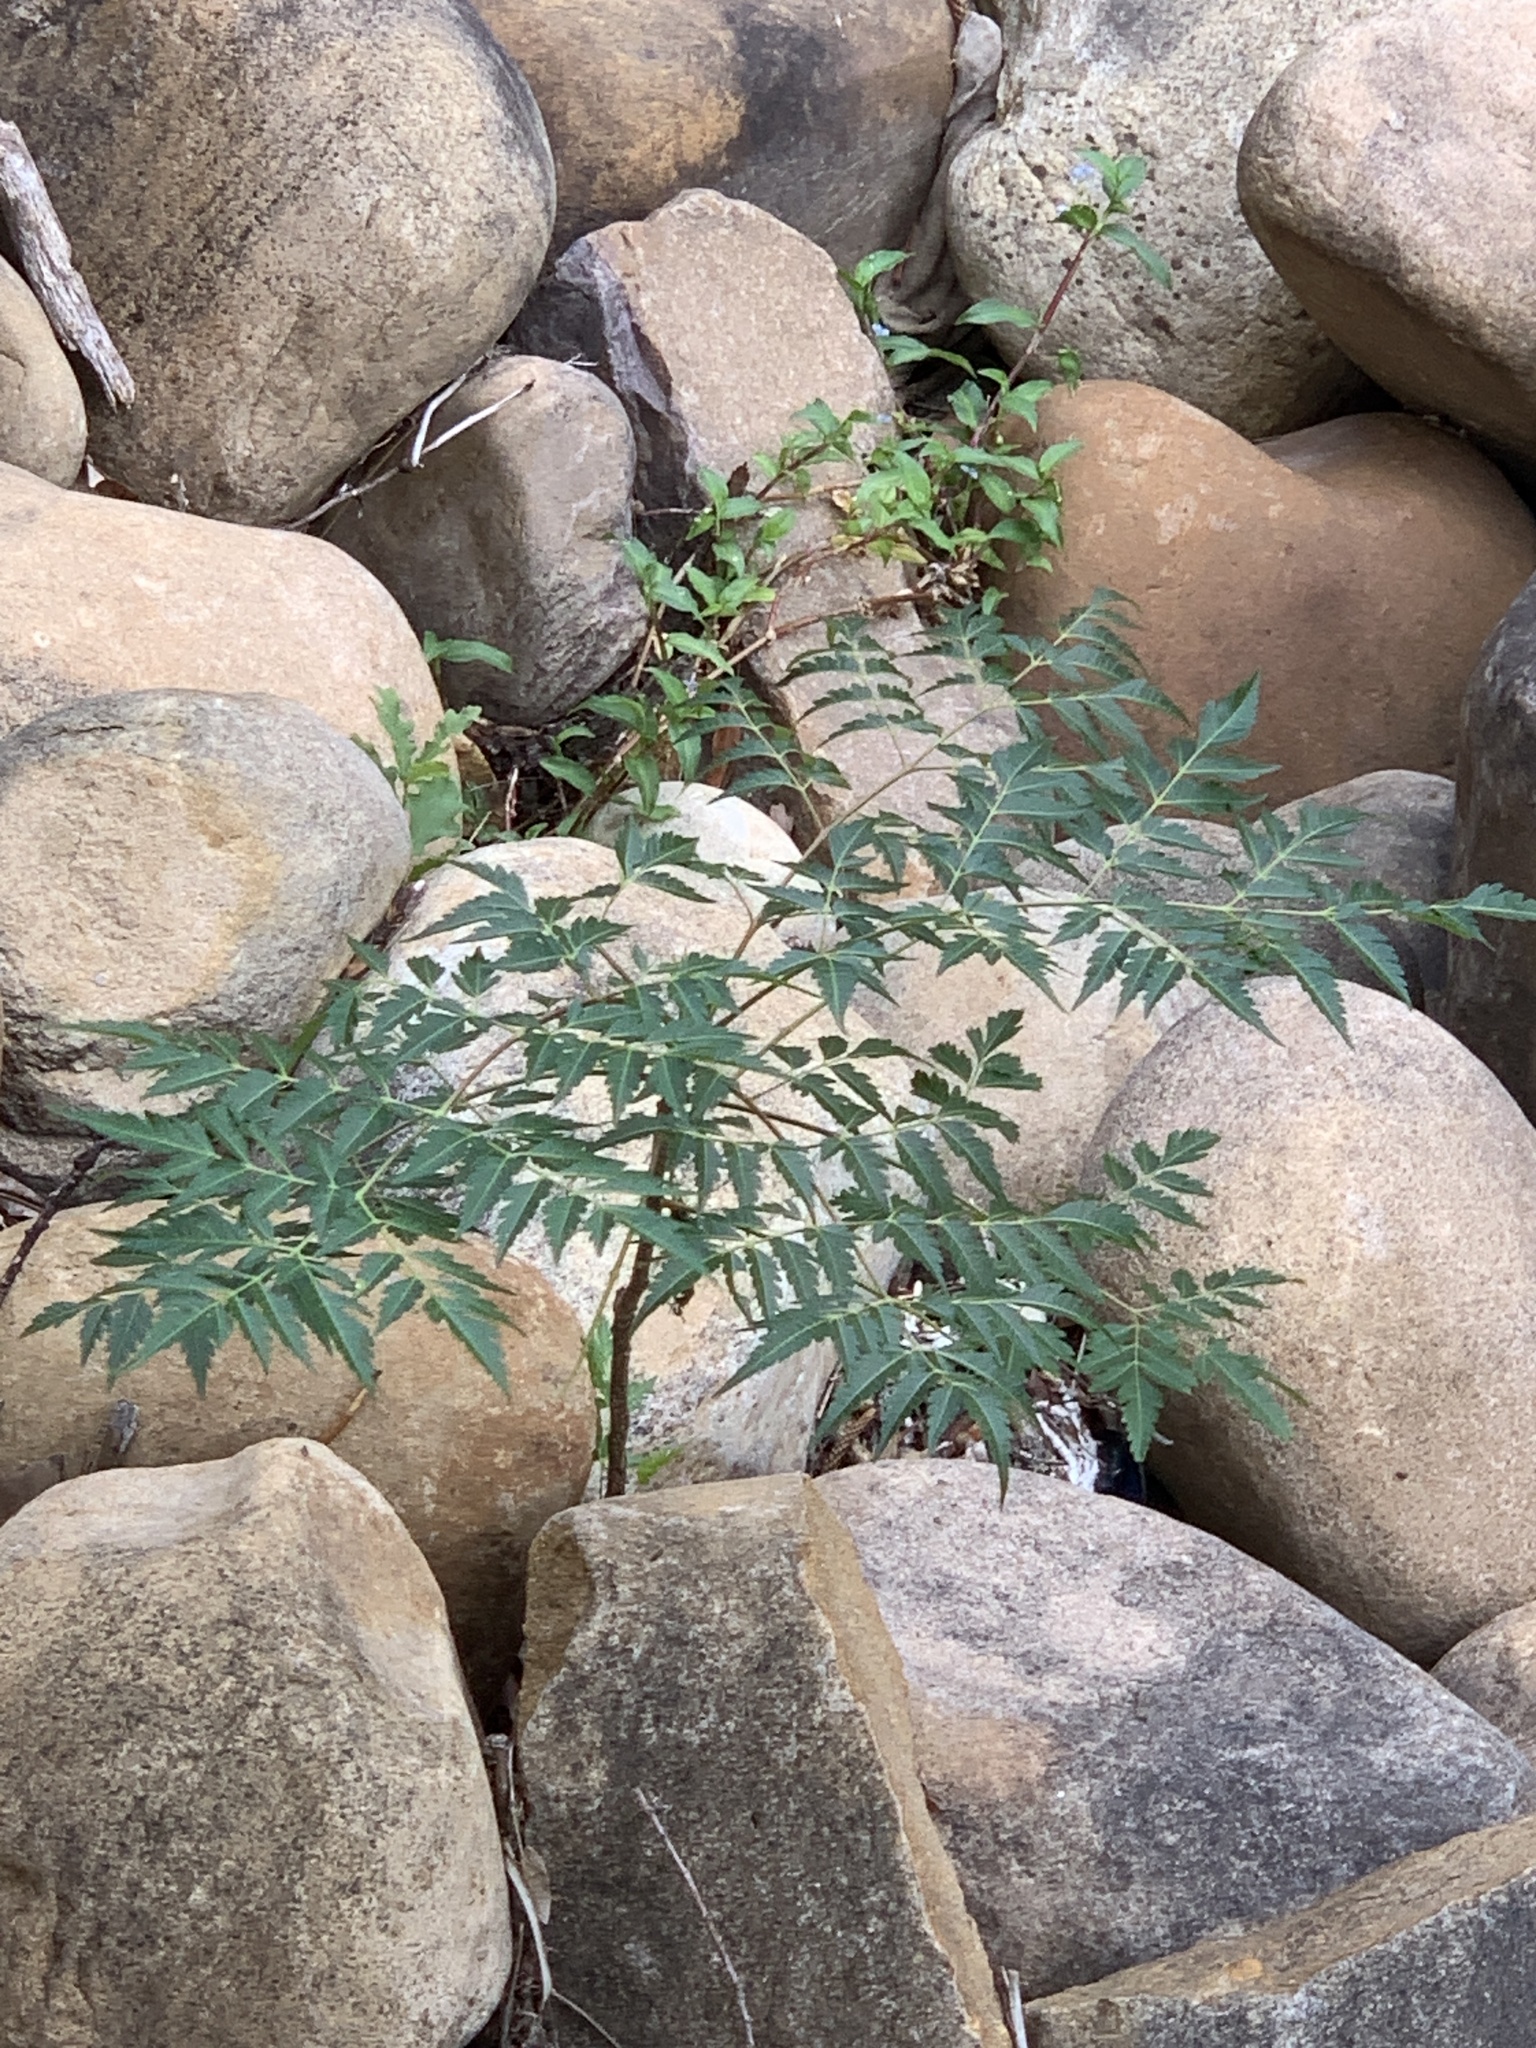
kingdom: Plantae
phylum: Tracheophyta
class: Magnoliopsida
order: Sapindales
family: Meliaceae
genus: Melia
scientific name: Melia azedarach
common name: Chinaberrytree
